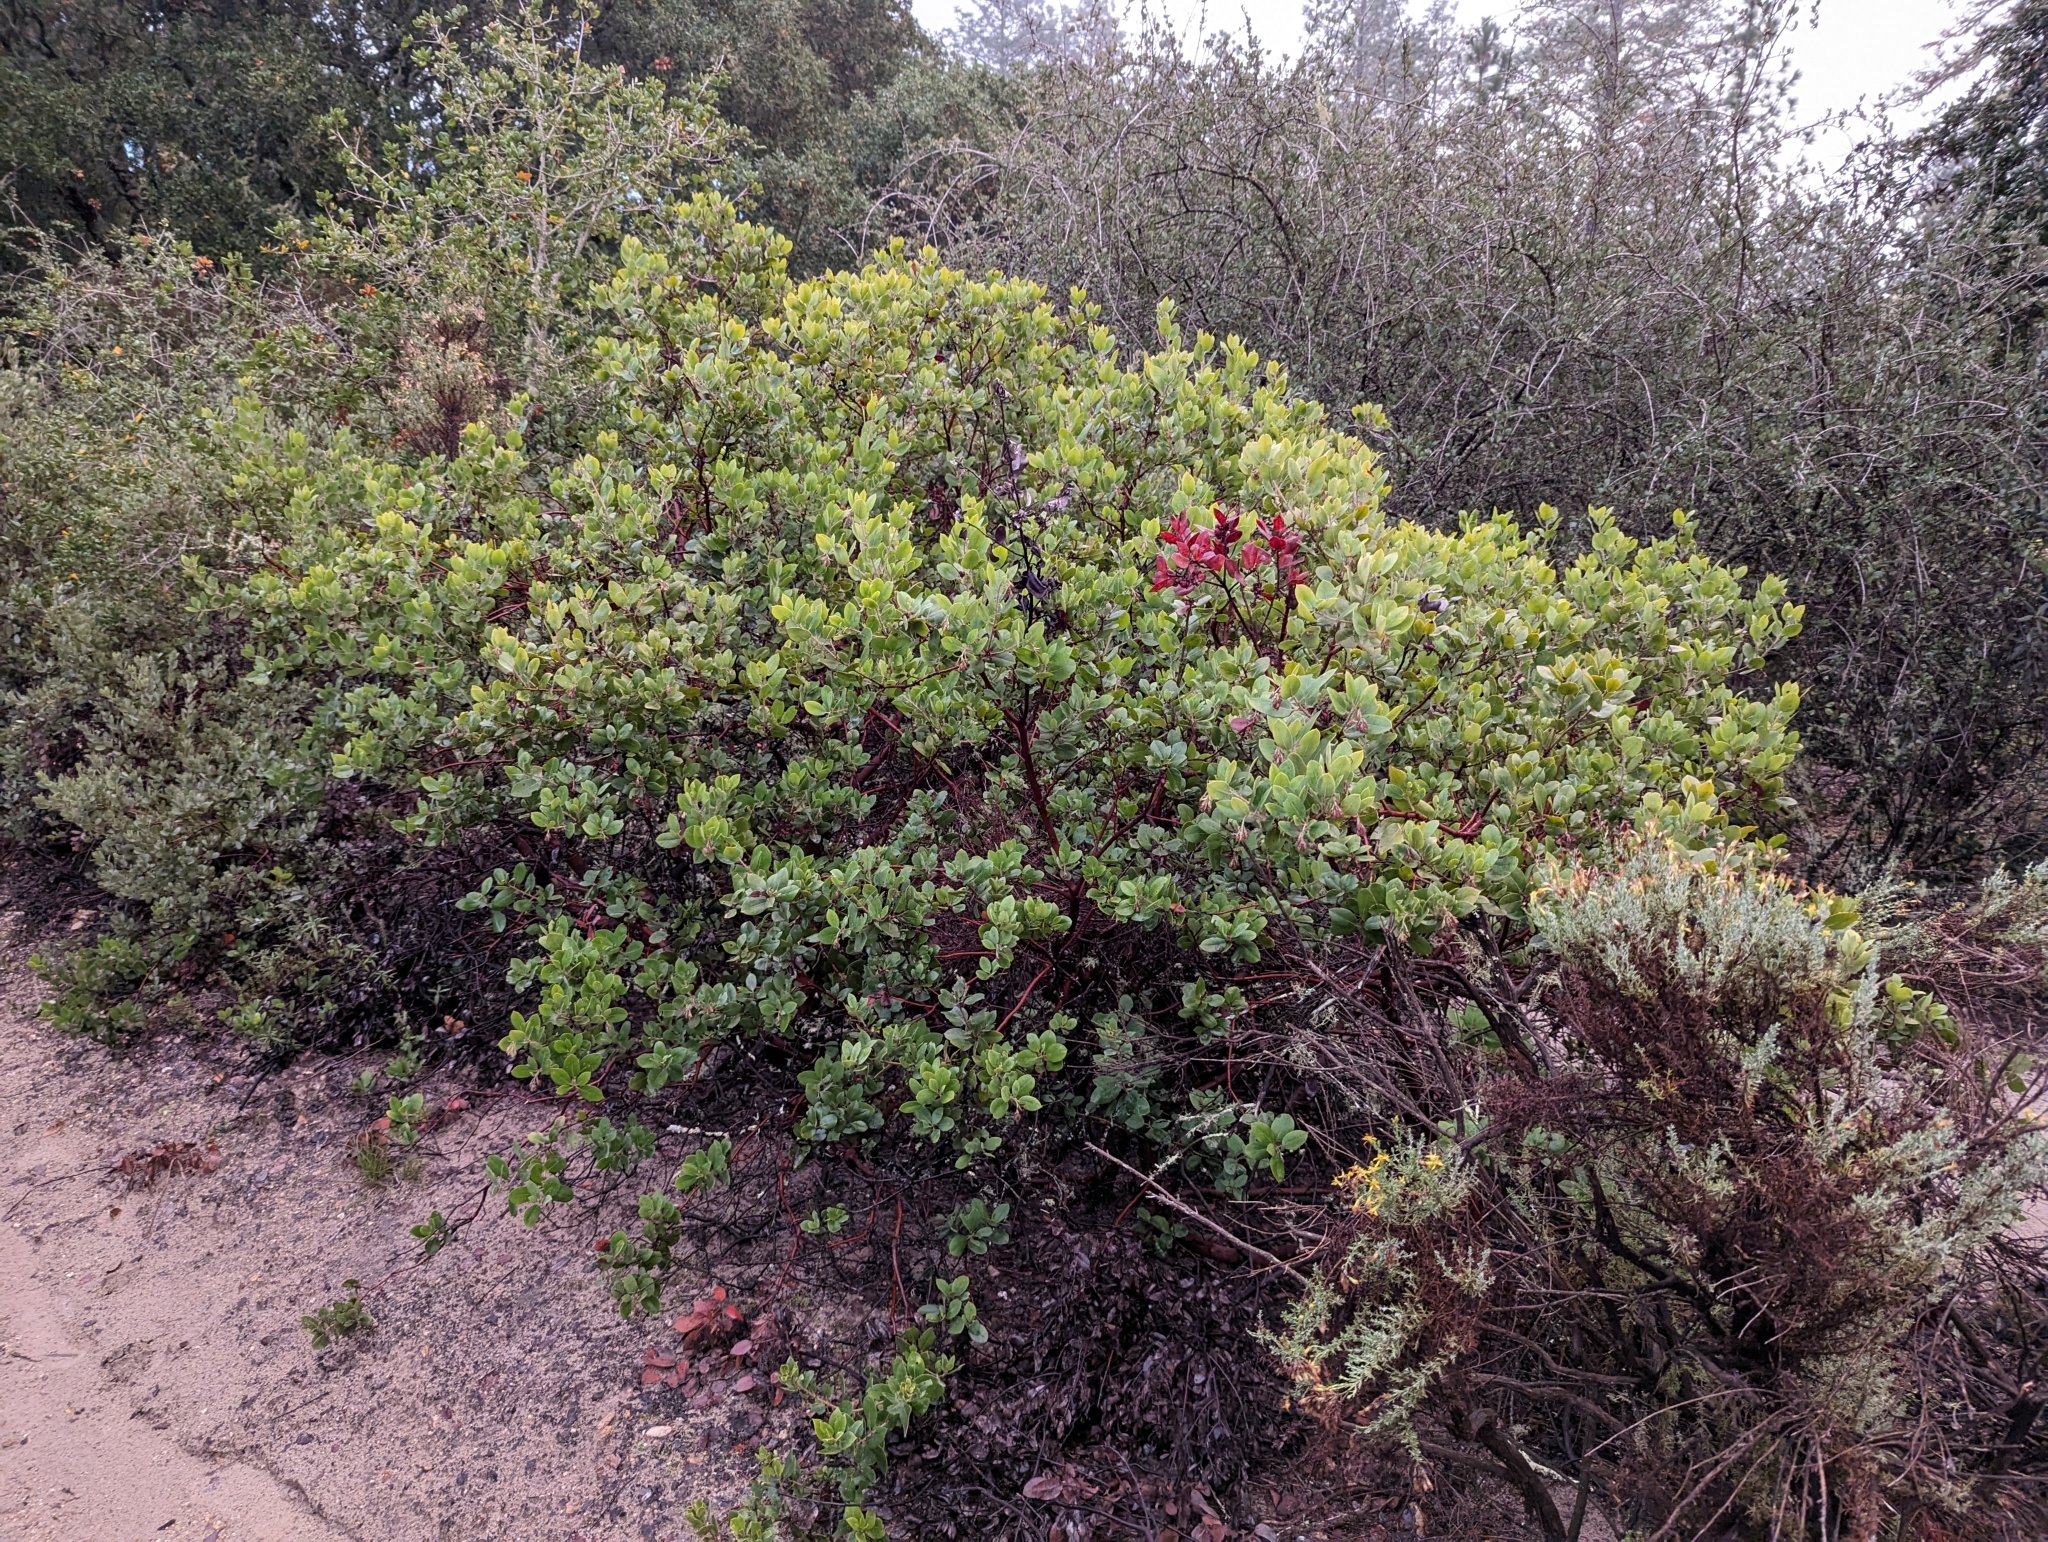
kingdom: Plantae
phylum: Tracheophyta
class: Magnoliopsida
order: Ericales
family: Ericaceae
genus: Arctostaphylos
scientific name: Arctostaphylos crustacea
